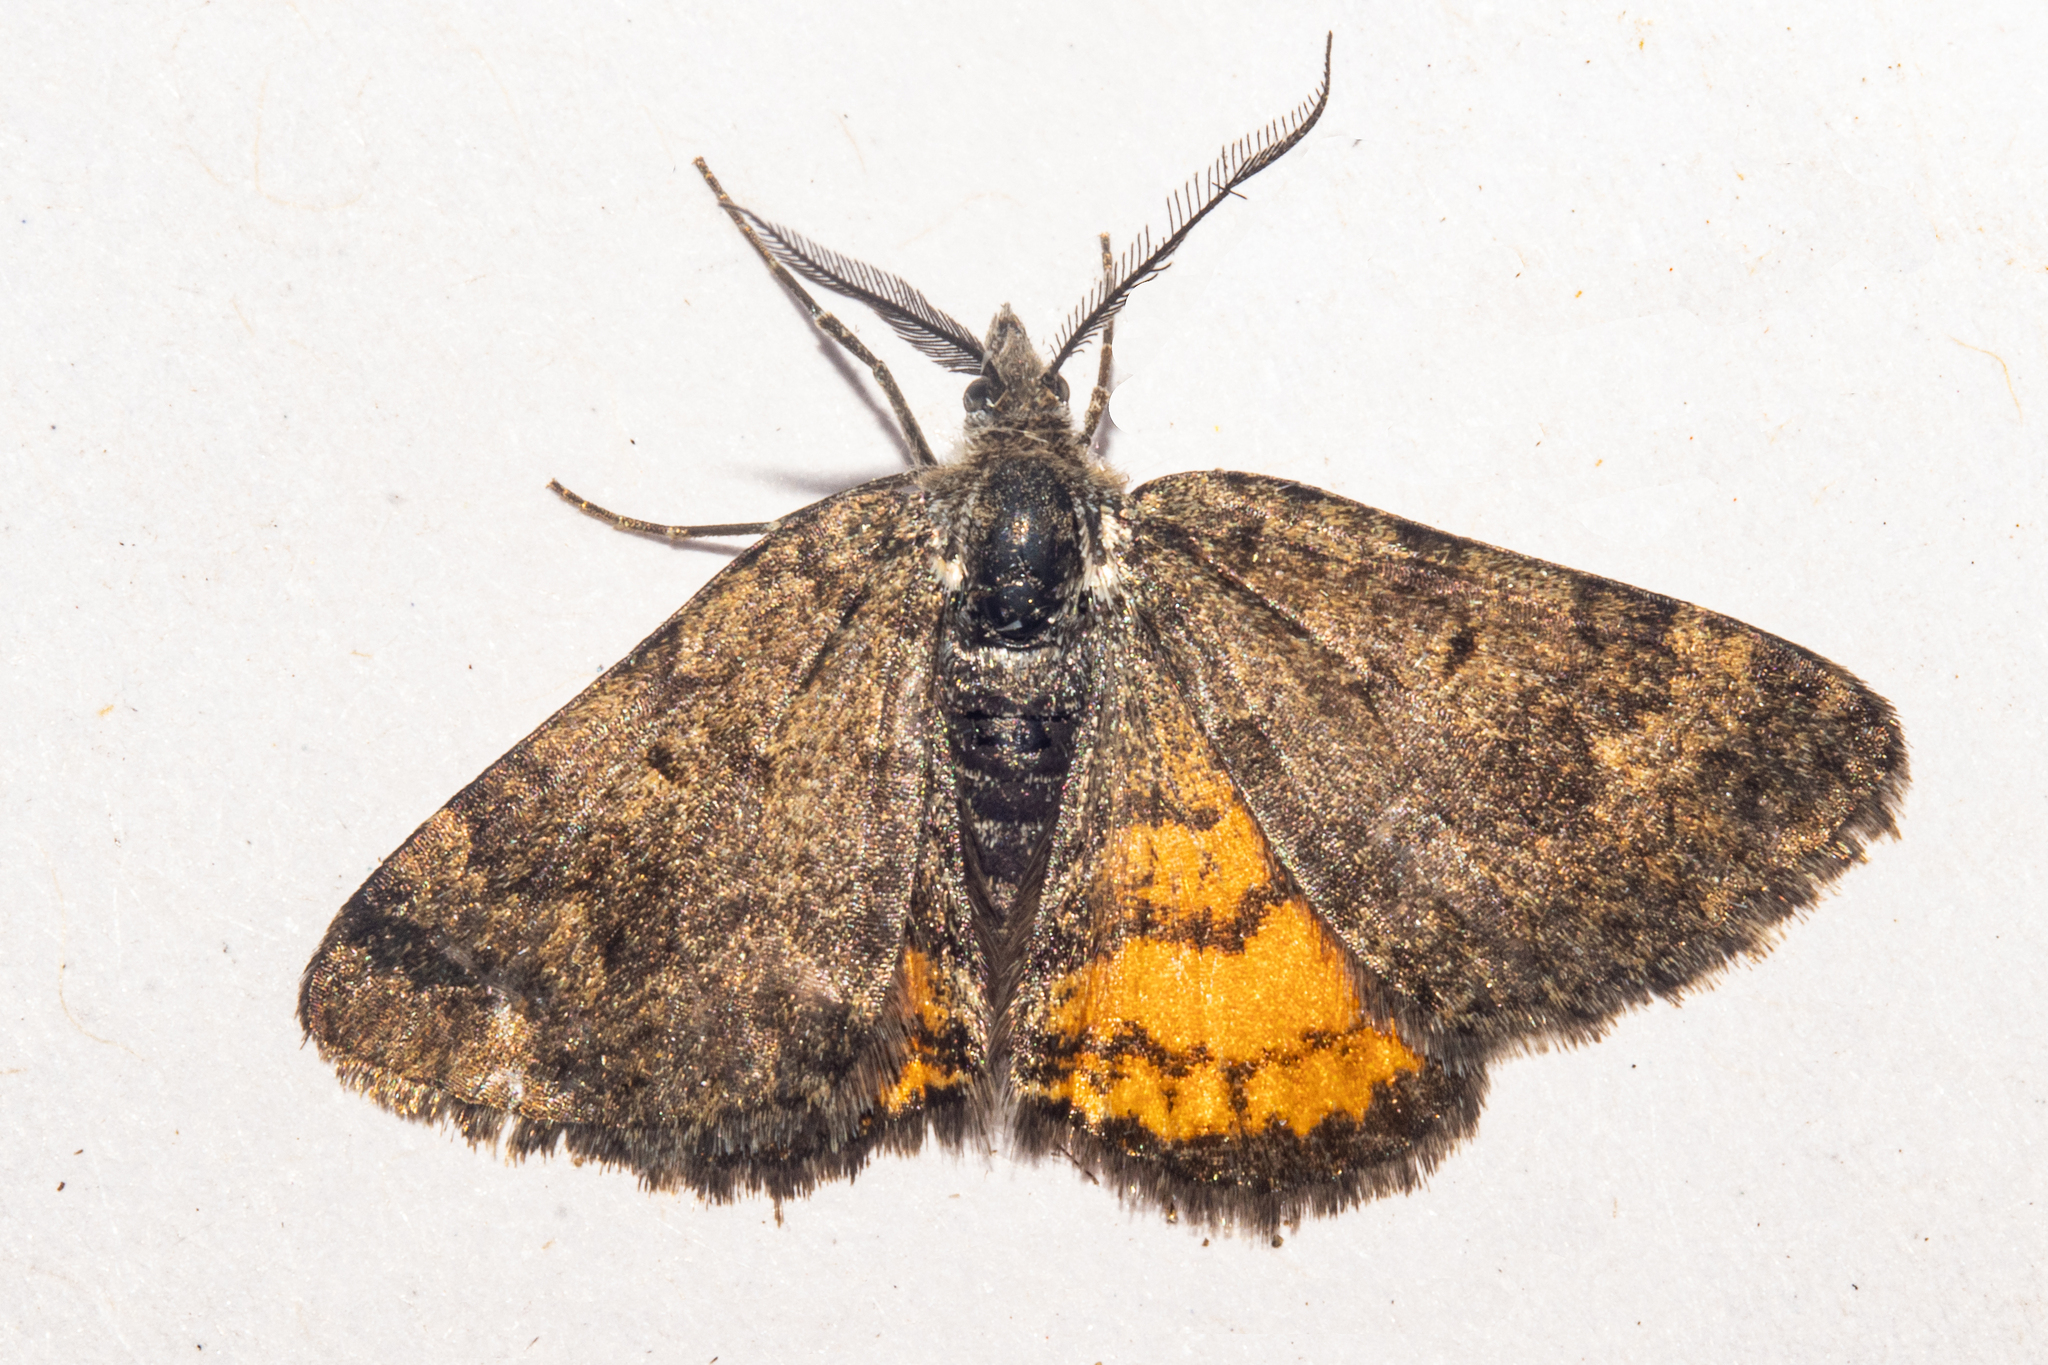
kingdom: Animalia
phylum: Arthropoda
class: Insecta
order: Lepidoptera
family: Geometridae
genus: Paranotoreas
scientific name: Paranotoreas brephosata
